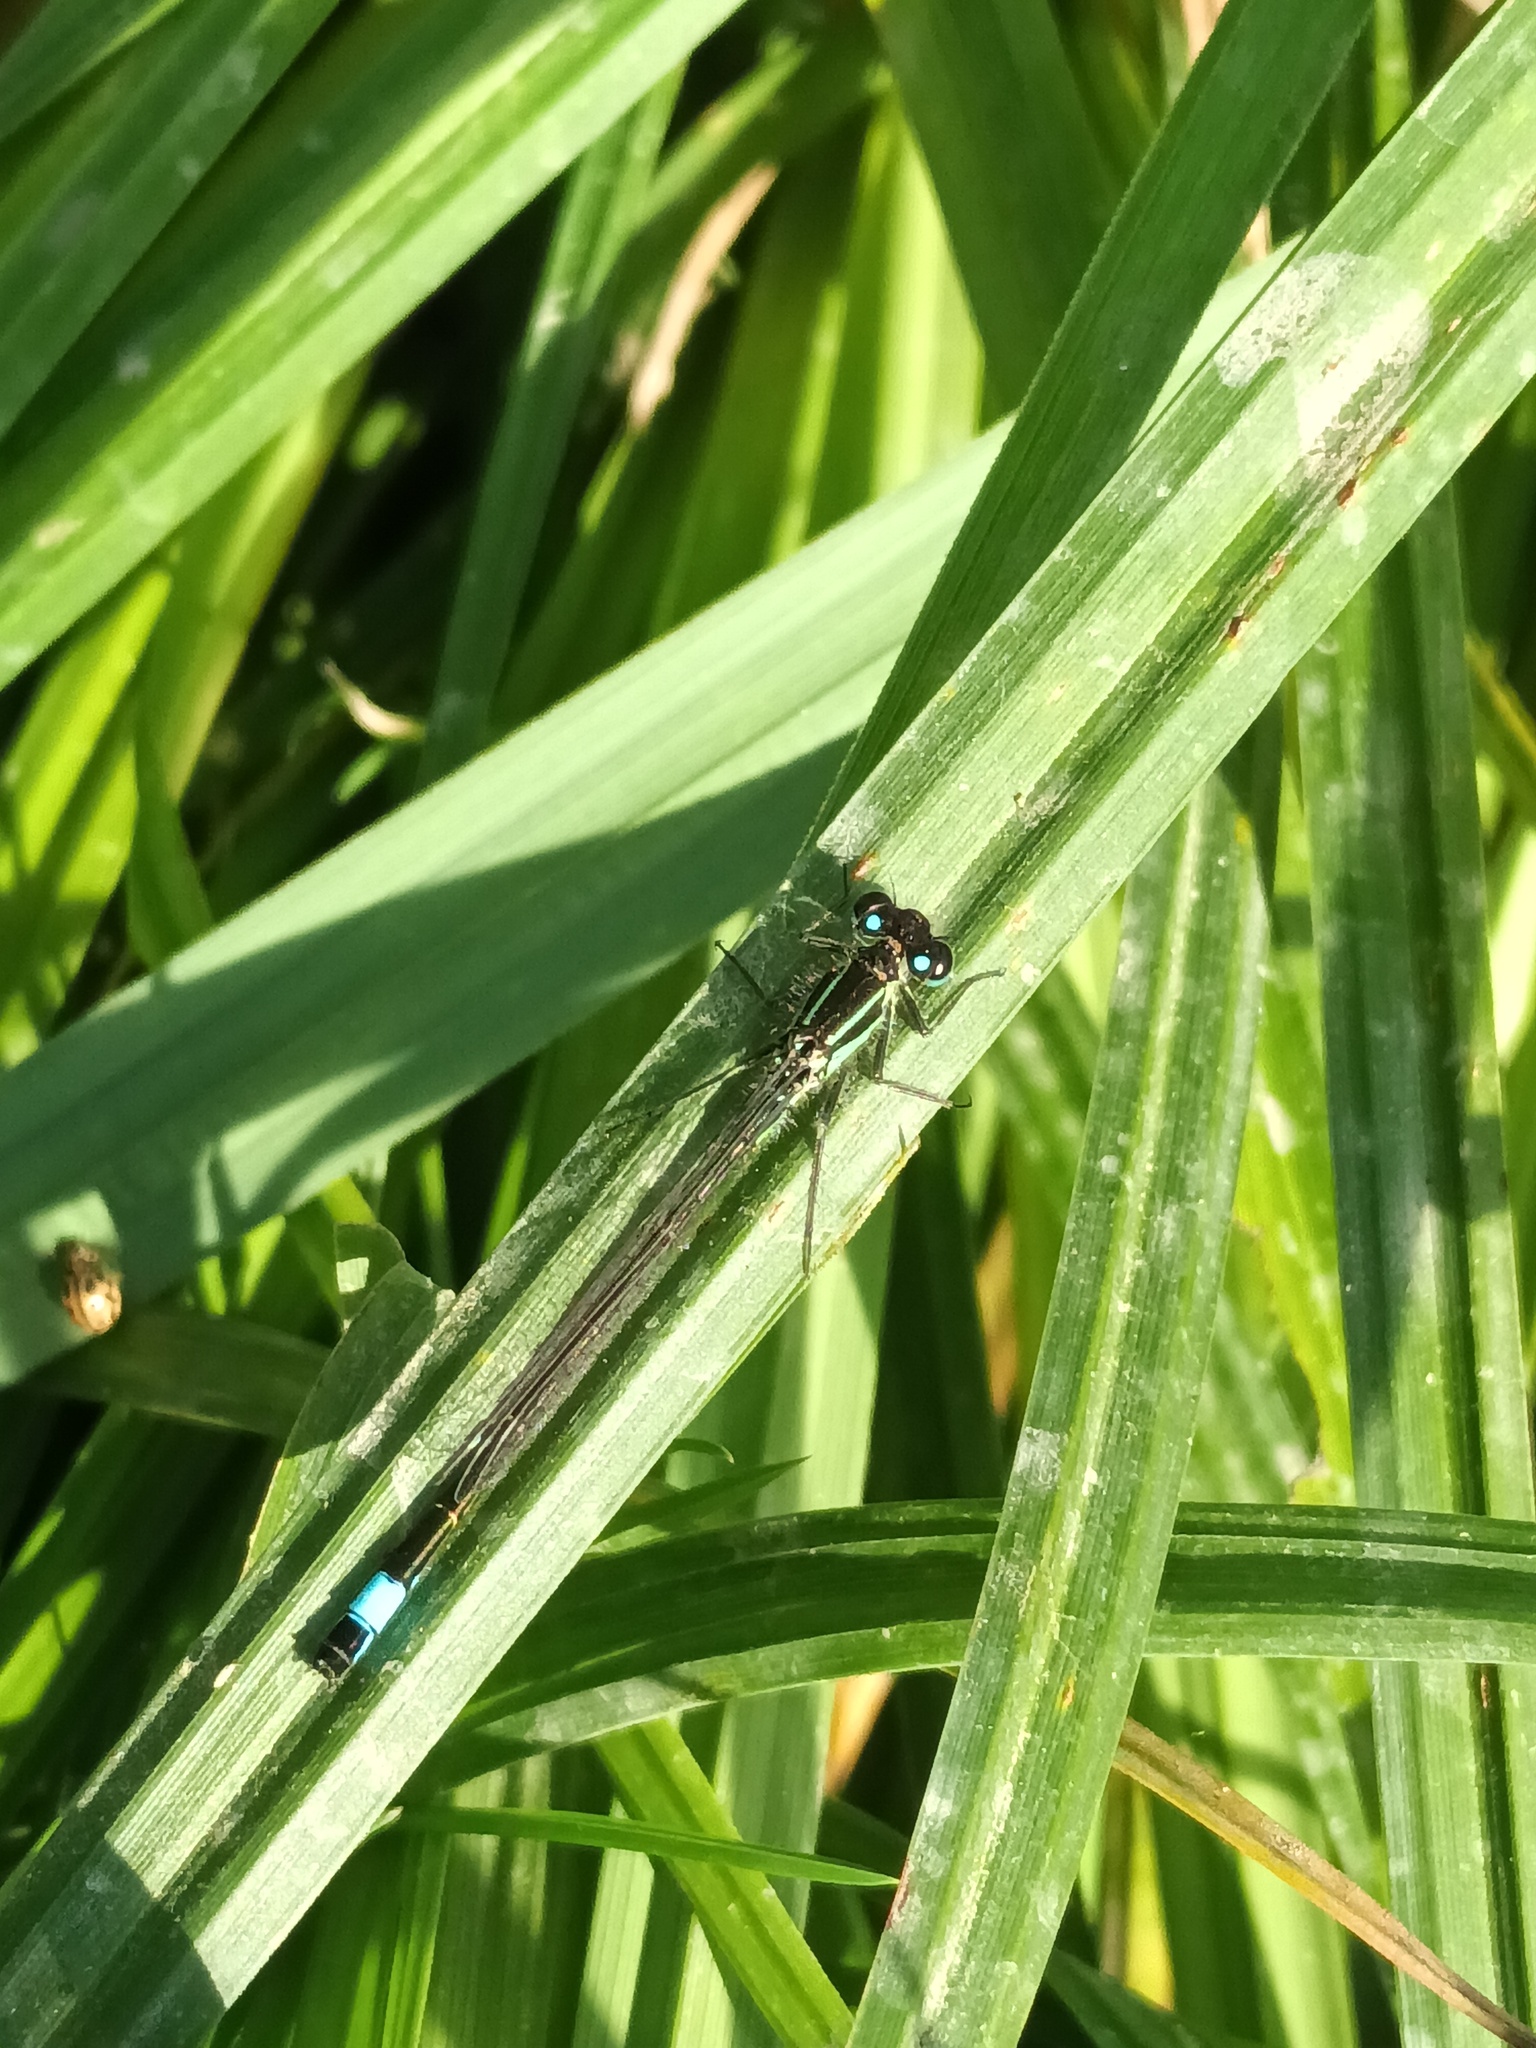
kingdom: Animalia
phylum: Arthropoda
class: Insecta
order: Odonata
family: Coenagrionidae
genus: Ischnura
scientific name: Ischnura elegans
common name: Blue-tailed damselfly
